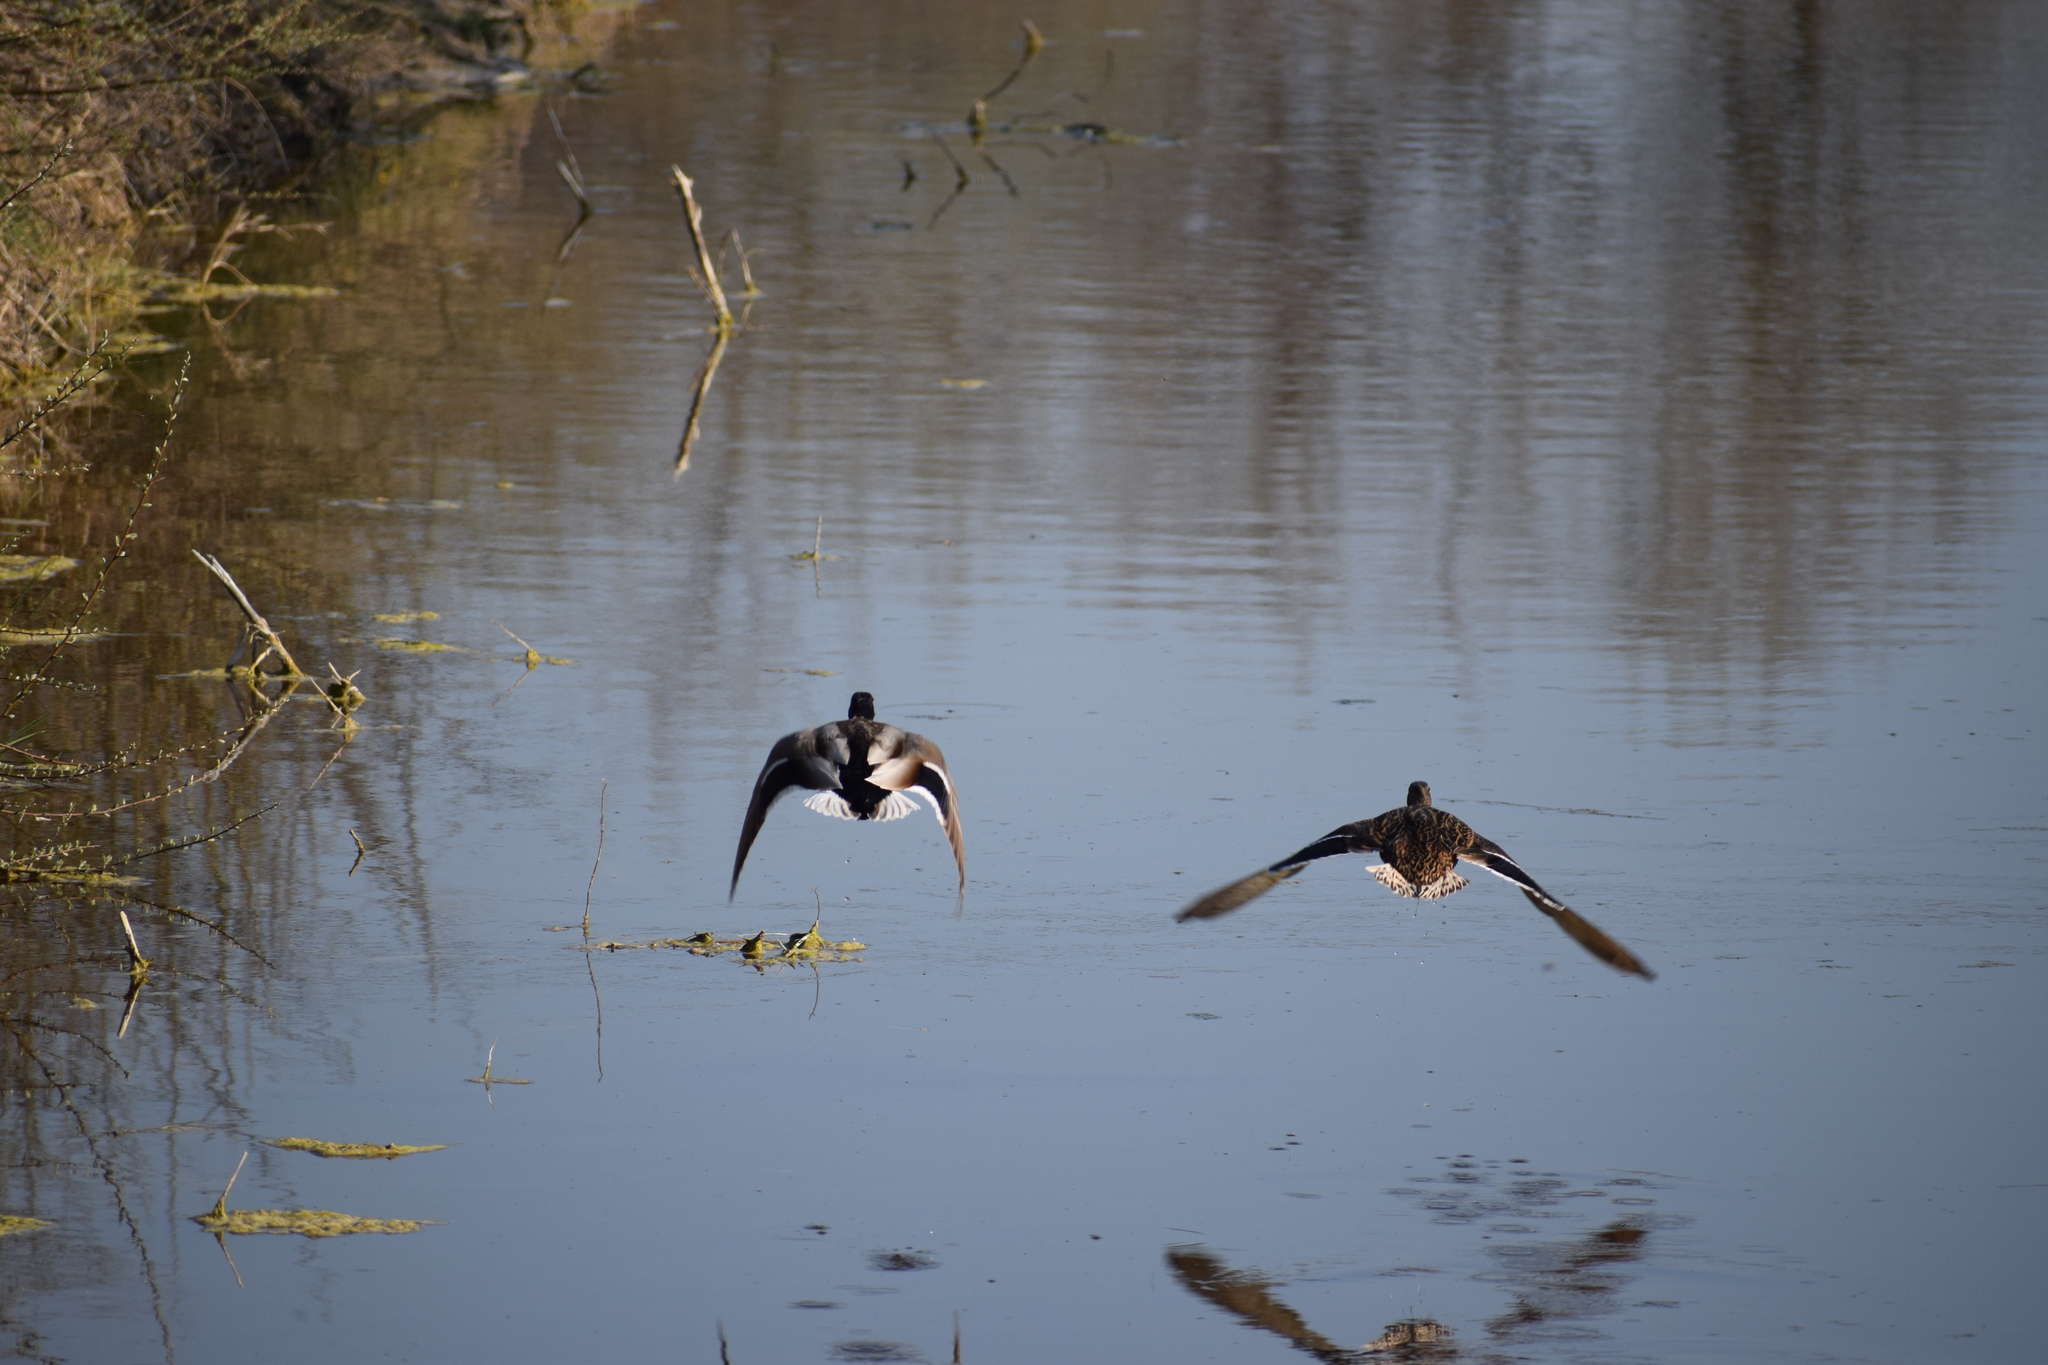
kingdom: Animalia
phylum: Chordata
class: Aves
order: Anseriformes
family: Anatidae
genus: Anas
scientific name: Anas platyrhynchos
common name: Mallard
